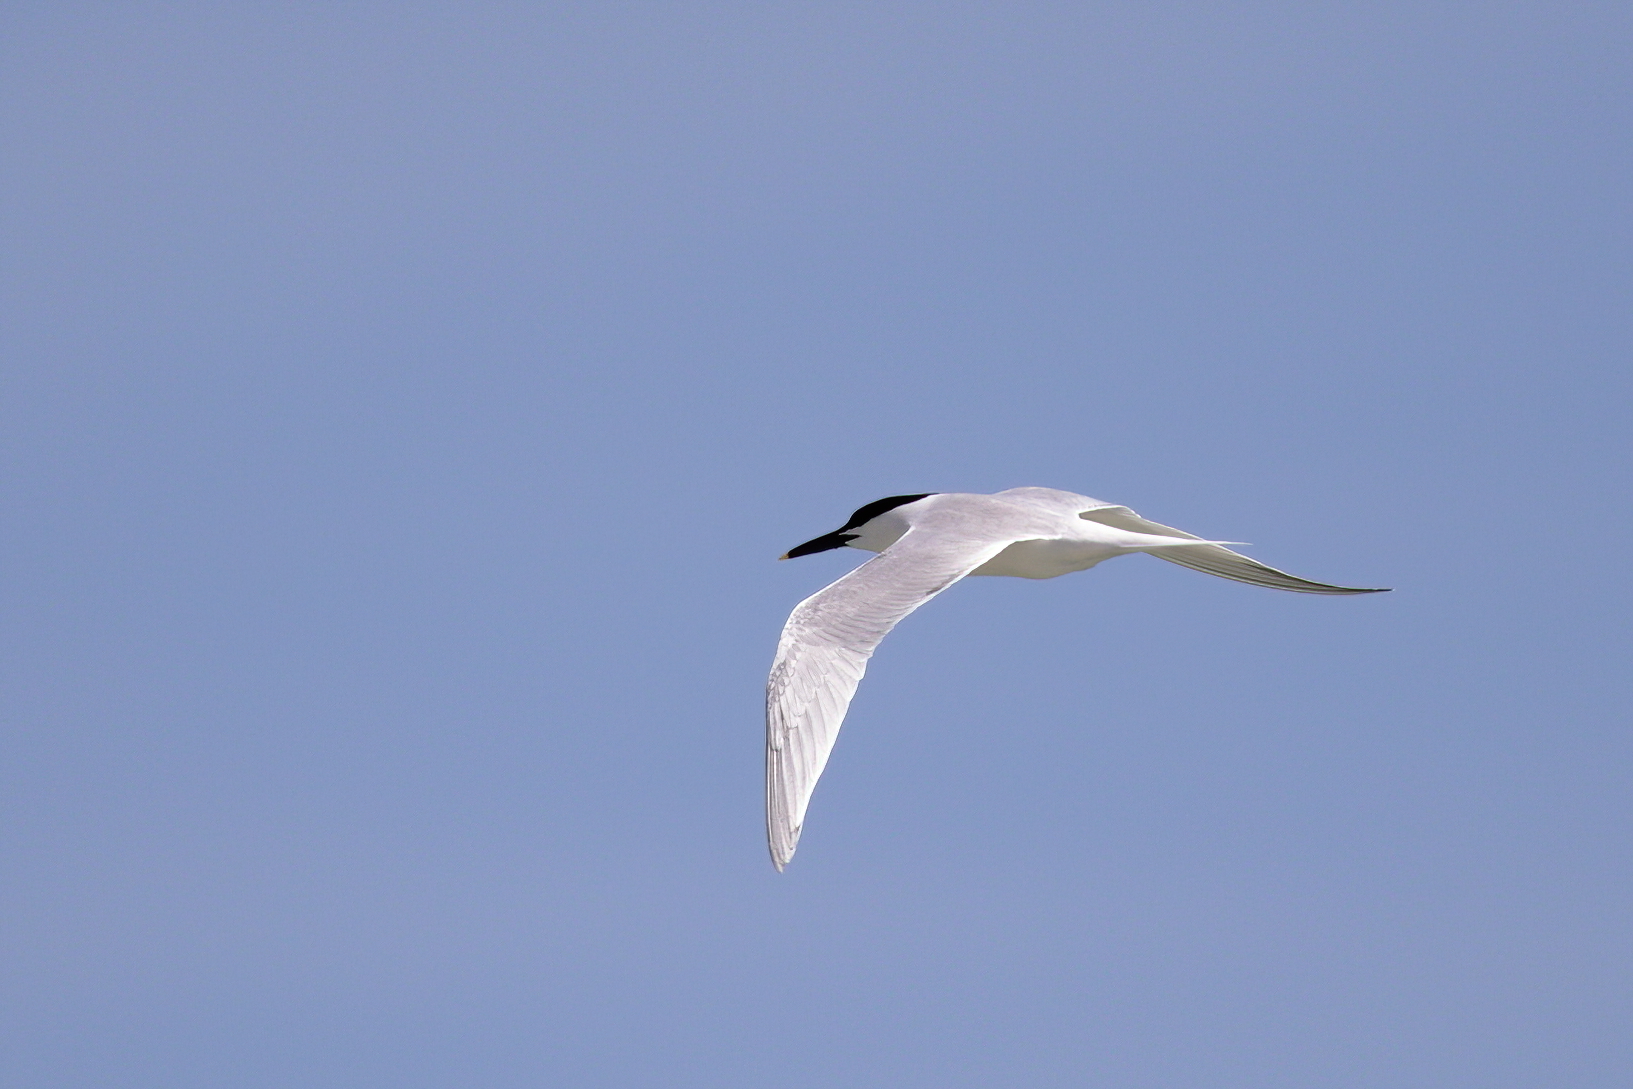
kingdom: Animalia
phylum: Chordata
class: Aves
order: Charadriiformes
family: Laridae
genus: Thalasseus
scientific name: Thalasseus sandvicensis
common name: Sandwich tern
